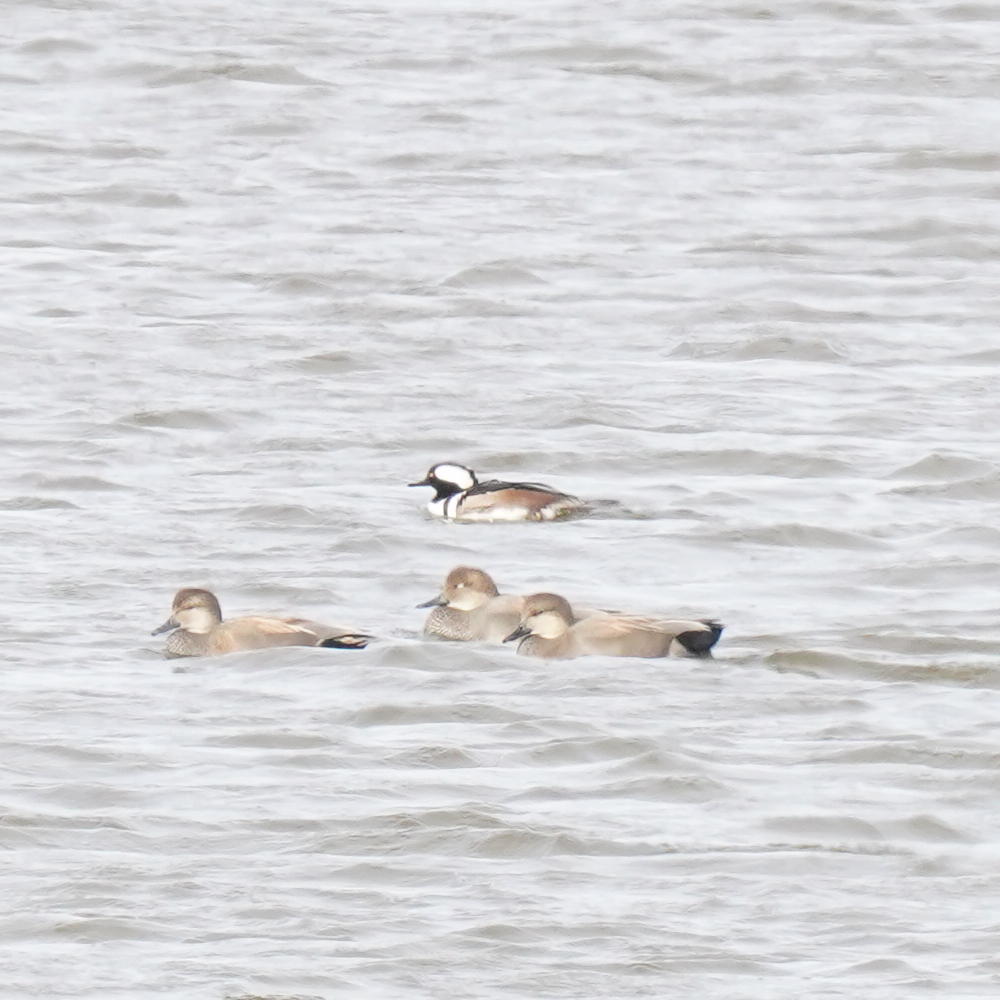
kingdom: Animalia
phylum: Chordata
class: Aves
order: Anseriformes
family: Anatidae
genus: Lophodytes
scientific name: Lophodytes cucullatus
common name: Hooded merganser
